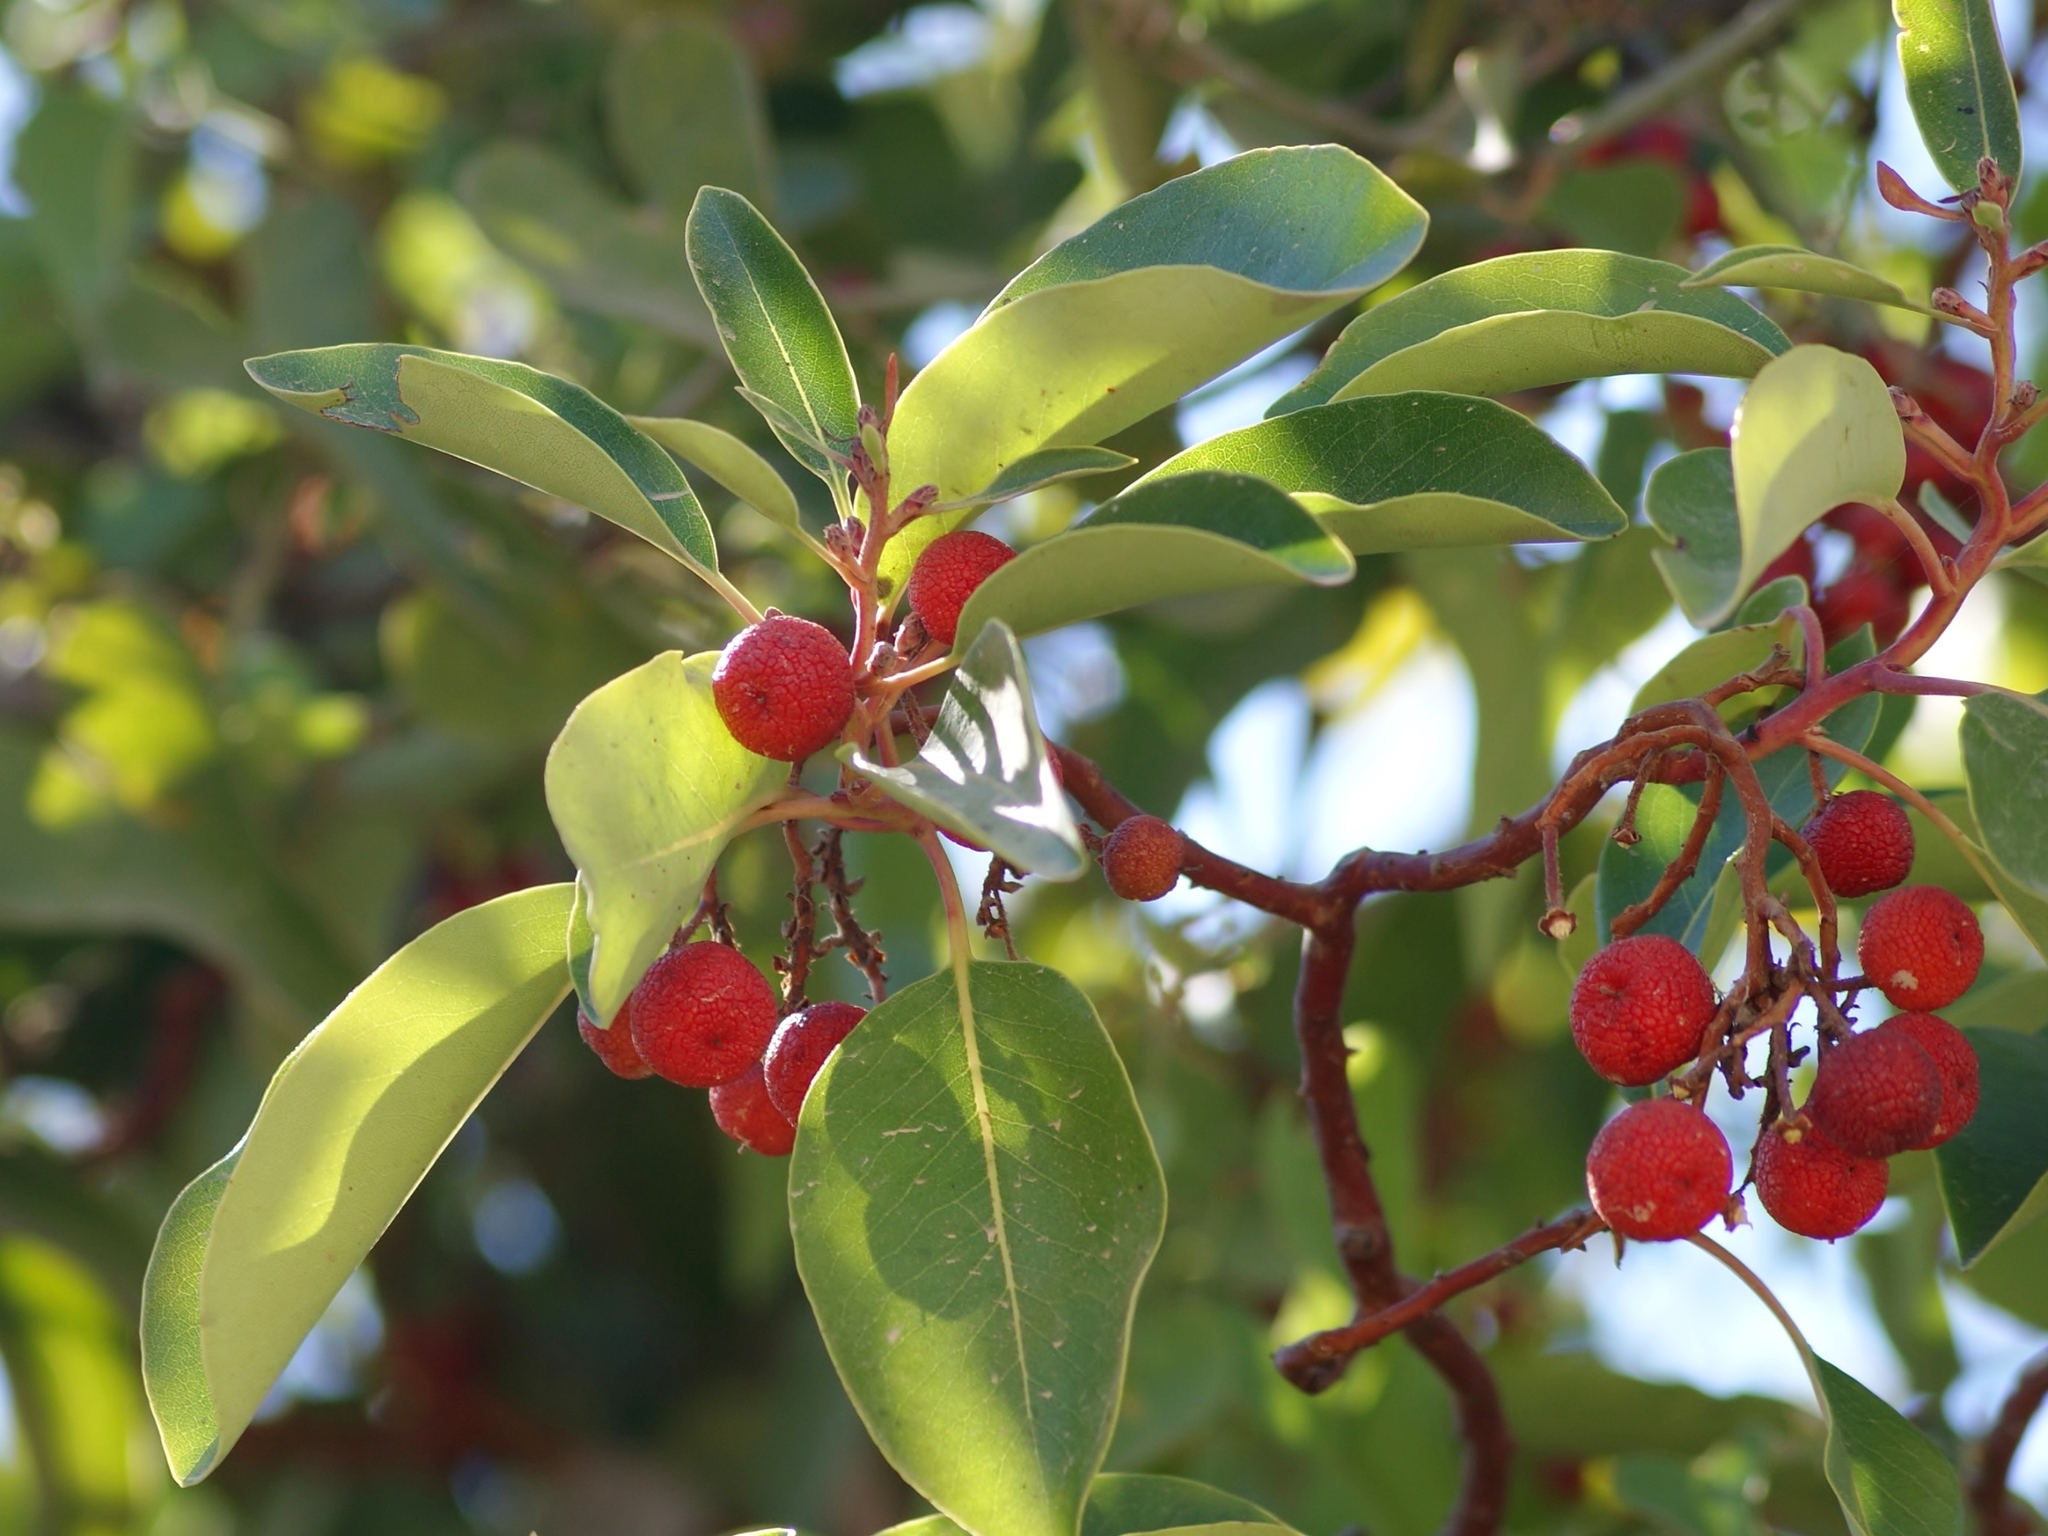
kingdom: Plantae
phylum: Tracheophyta
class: Magnoliopsida
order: Ericales
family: Ericaceae
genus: Arbutus
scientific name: Arbutus andrachne
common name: Greek strawberry tree
